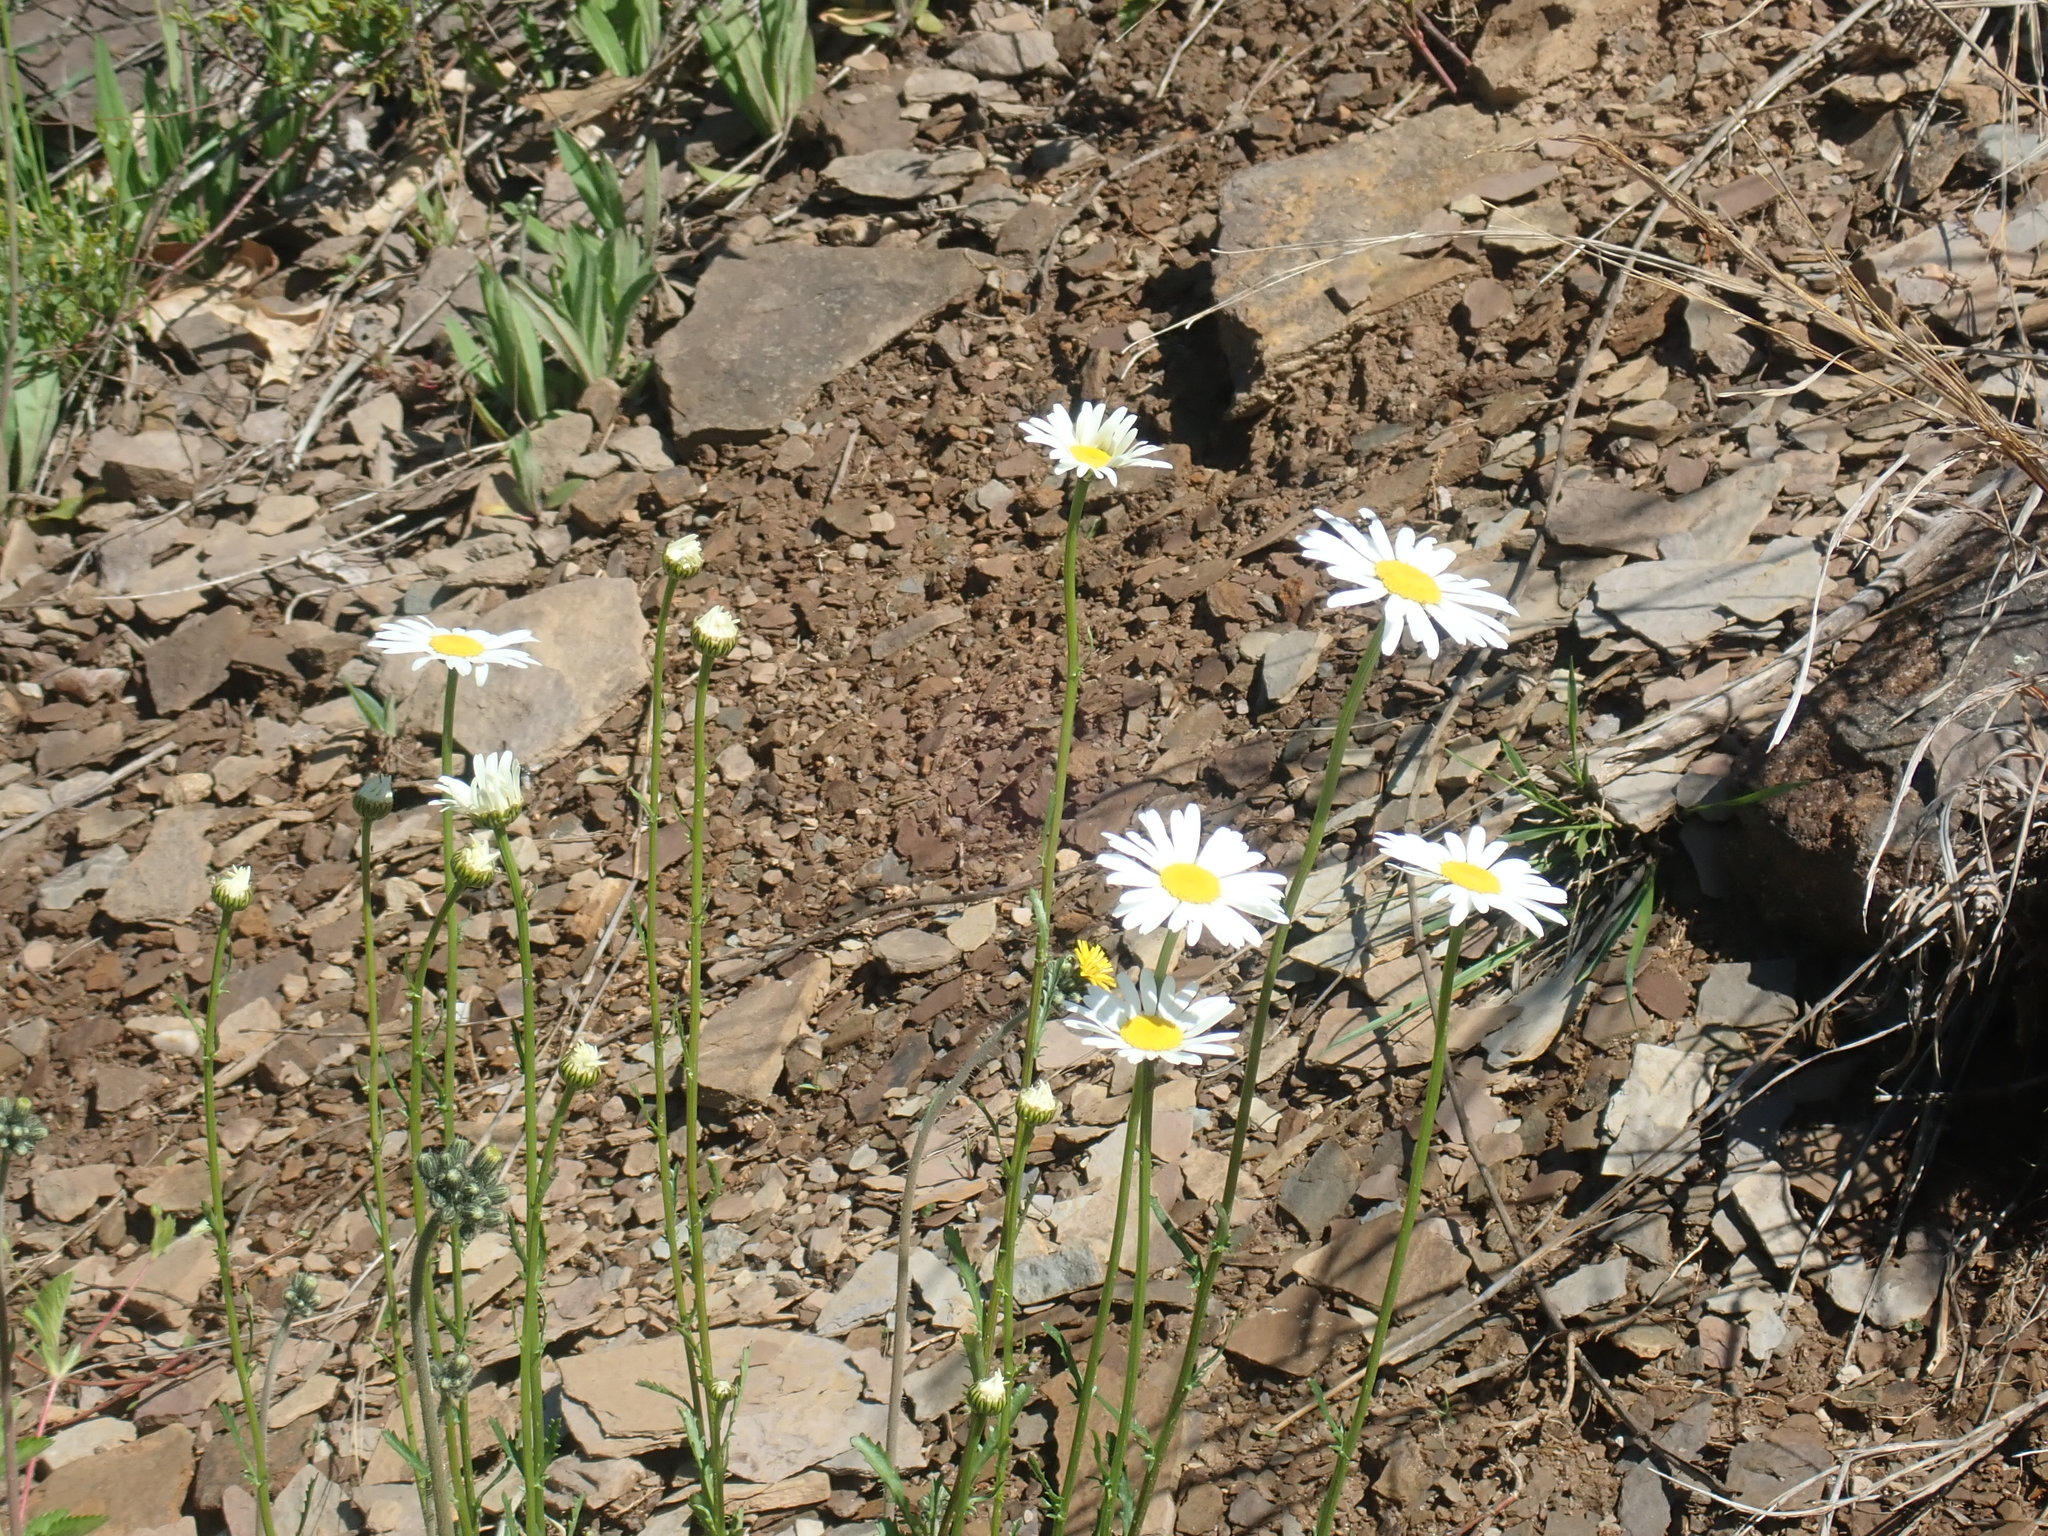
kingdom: Plantae
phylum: Tracheophyta
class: Magnoliopsida
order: Asterales
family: Asteraceae
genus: Leucanthemum
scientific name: Leucanthemum vulgare
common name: Oxeye daisy
